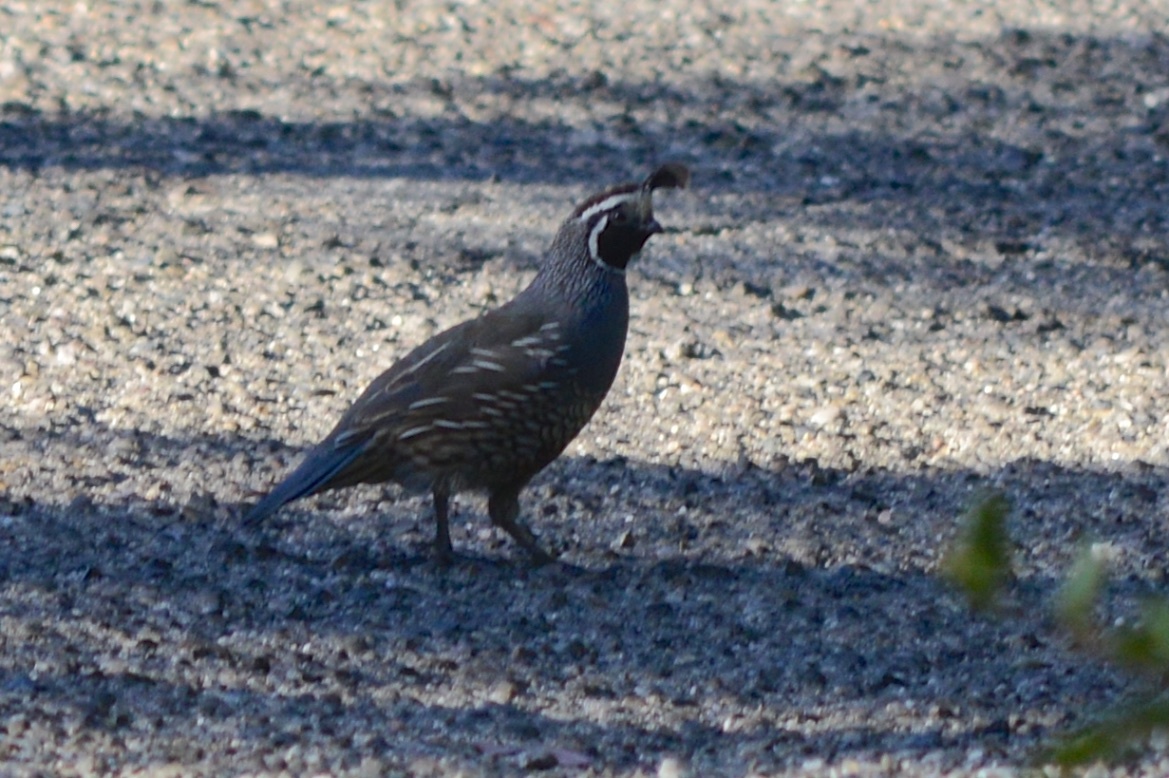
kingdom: Animalia
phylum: Chordata
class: Aves
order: Galliformes
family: Odontophoridae
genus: Callipepla
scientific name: Callipepla californica
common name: California quail
